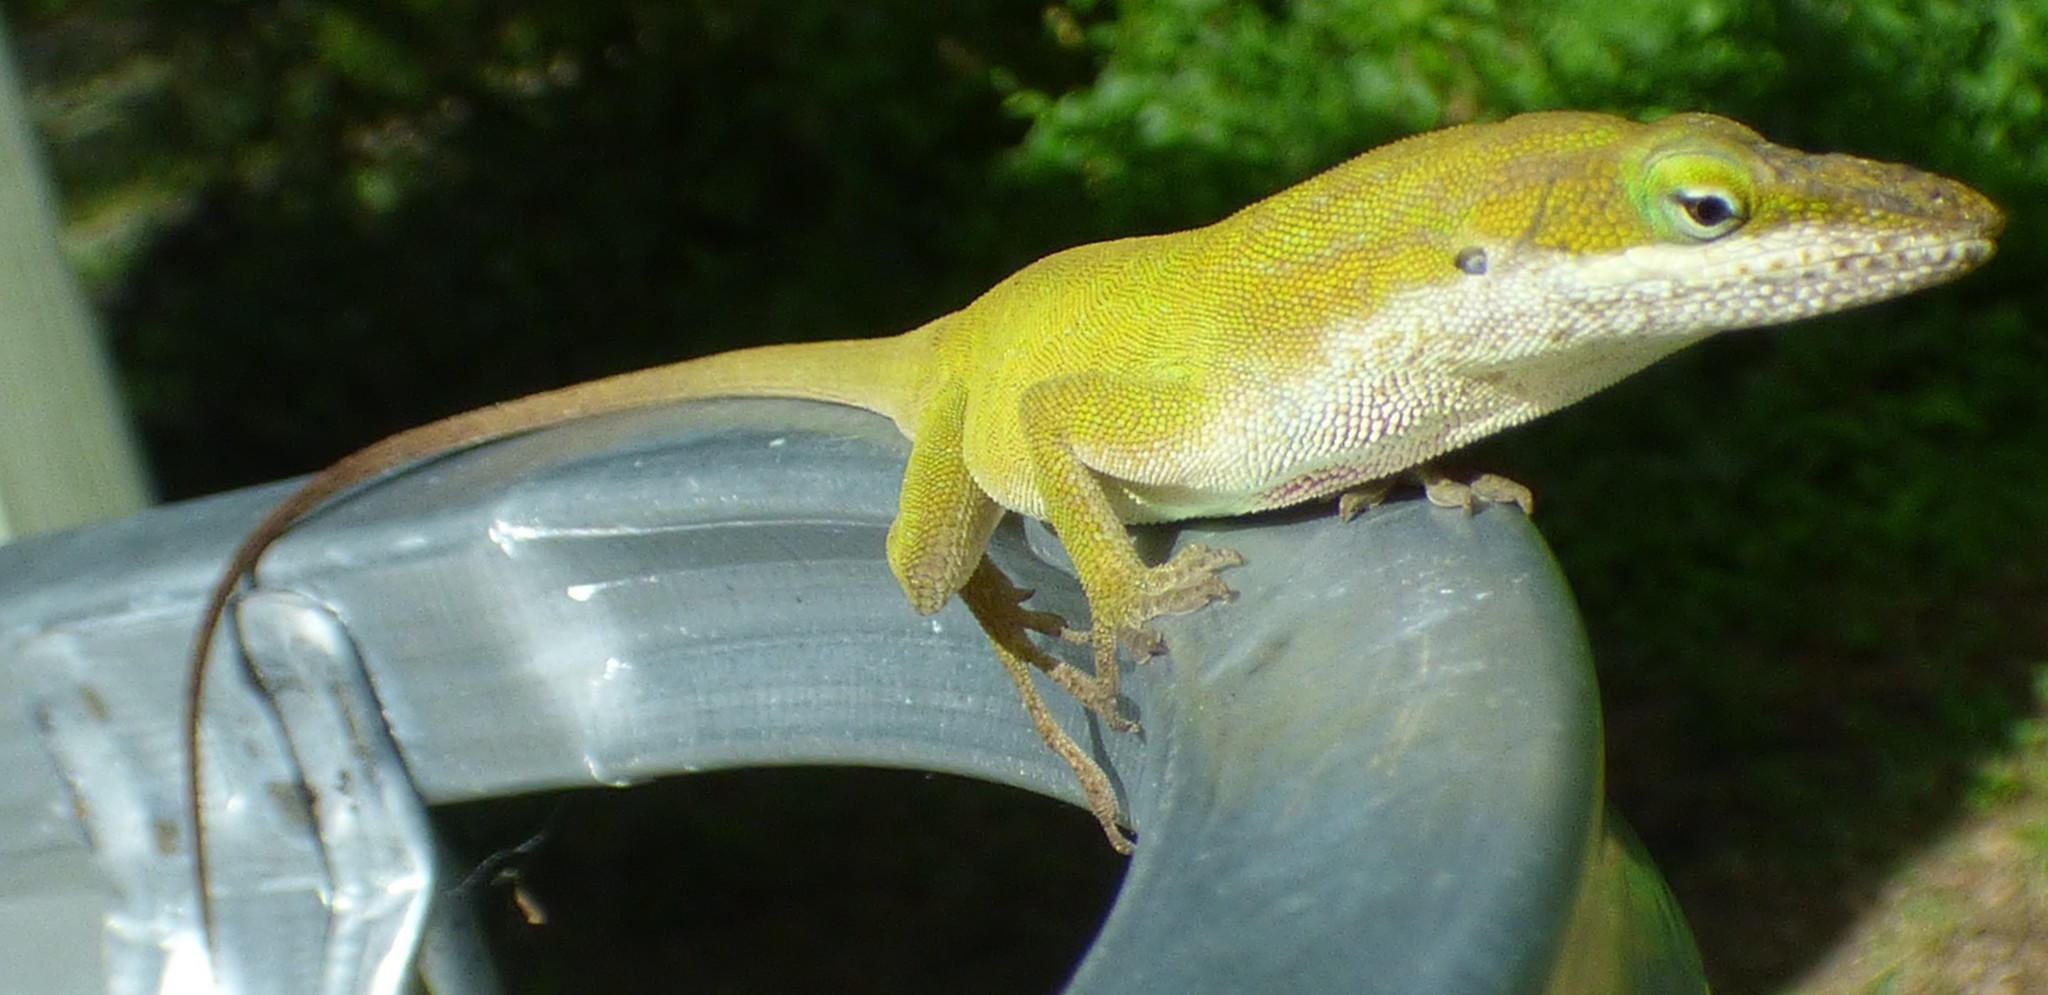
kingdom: Animalia
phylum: Chordata
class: Squamata
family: Dactyloidae
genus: Anolis
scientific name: Anolis carolinensis
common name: Green anole
